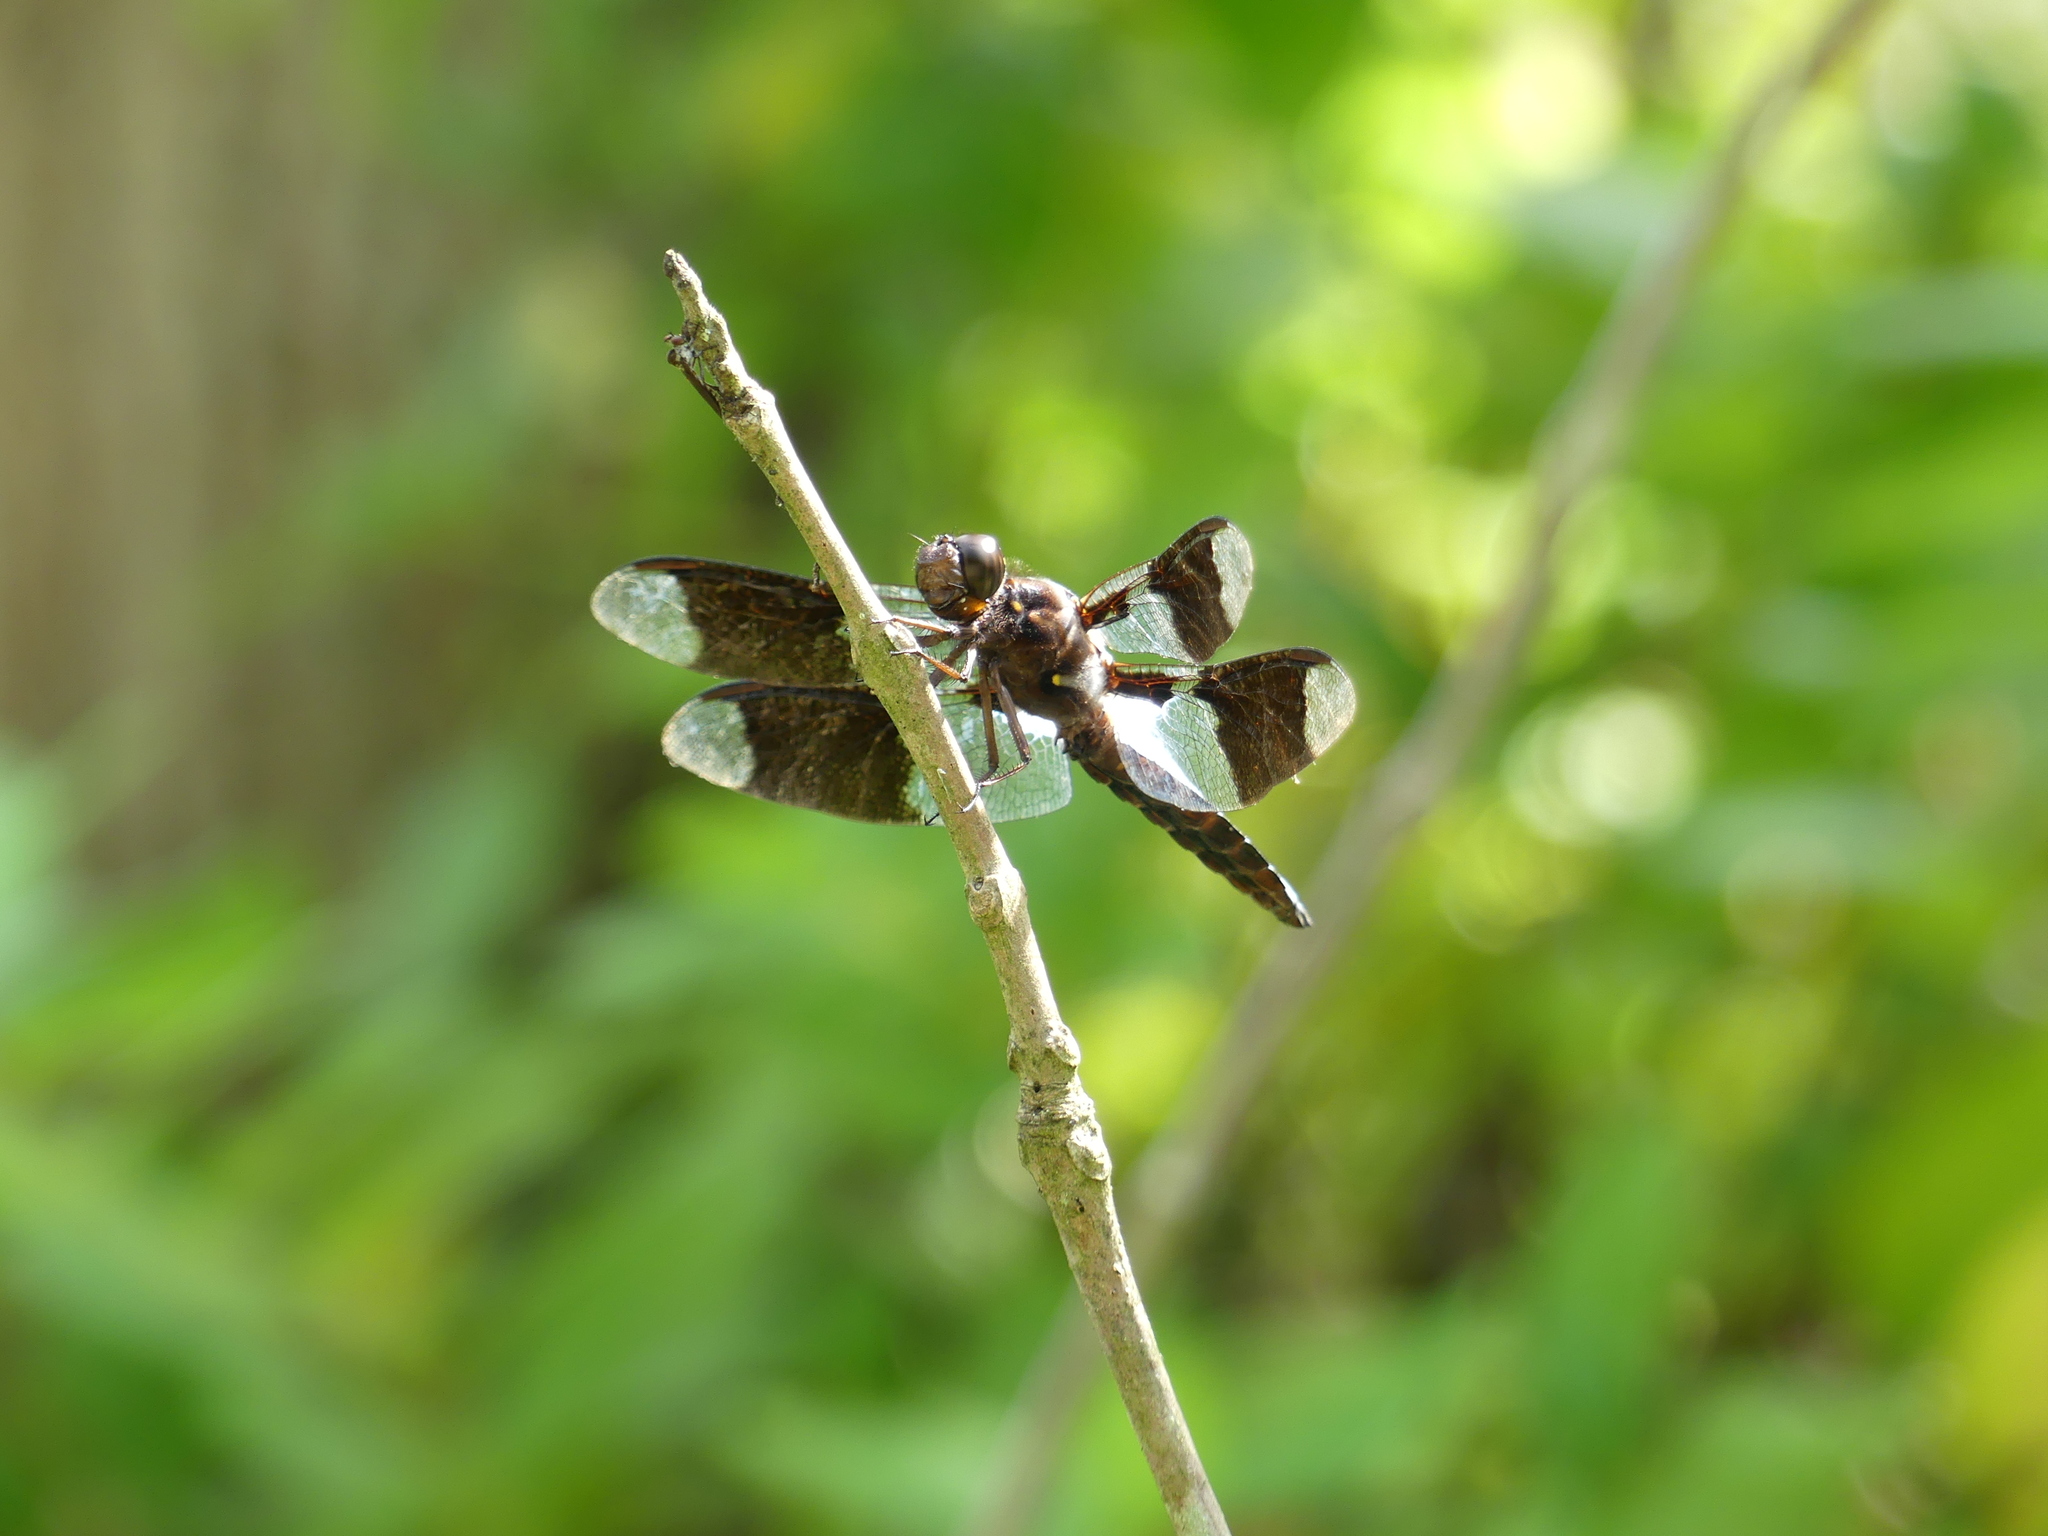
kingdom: Animalia
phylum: Arthropoda
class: Insecta
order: Odonata
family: Libellulidae
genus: Plathemis
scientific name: Plathemis lydia
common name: Common whitetail
